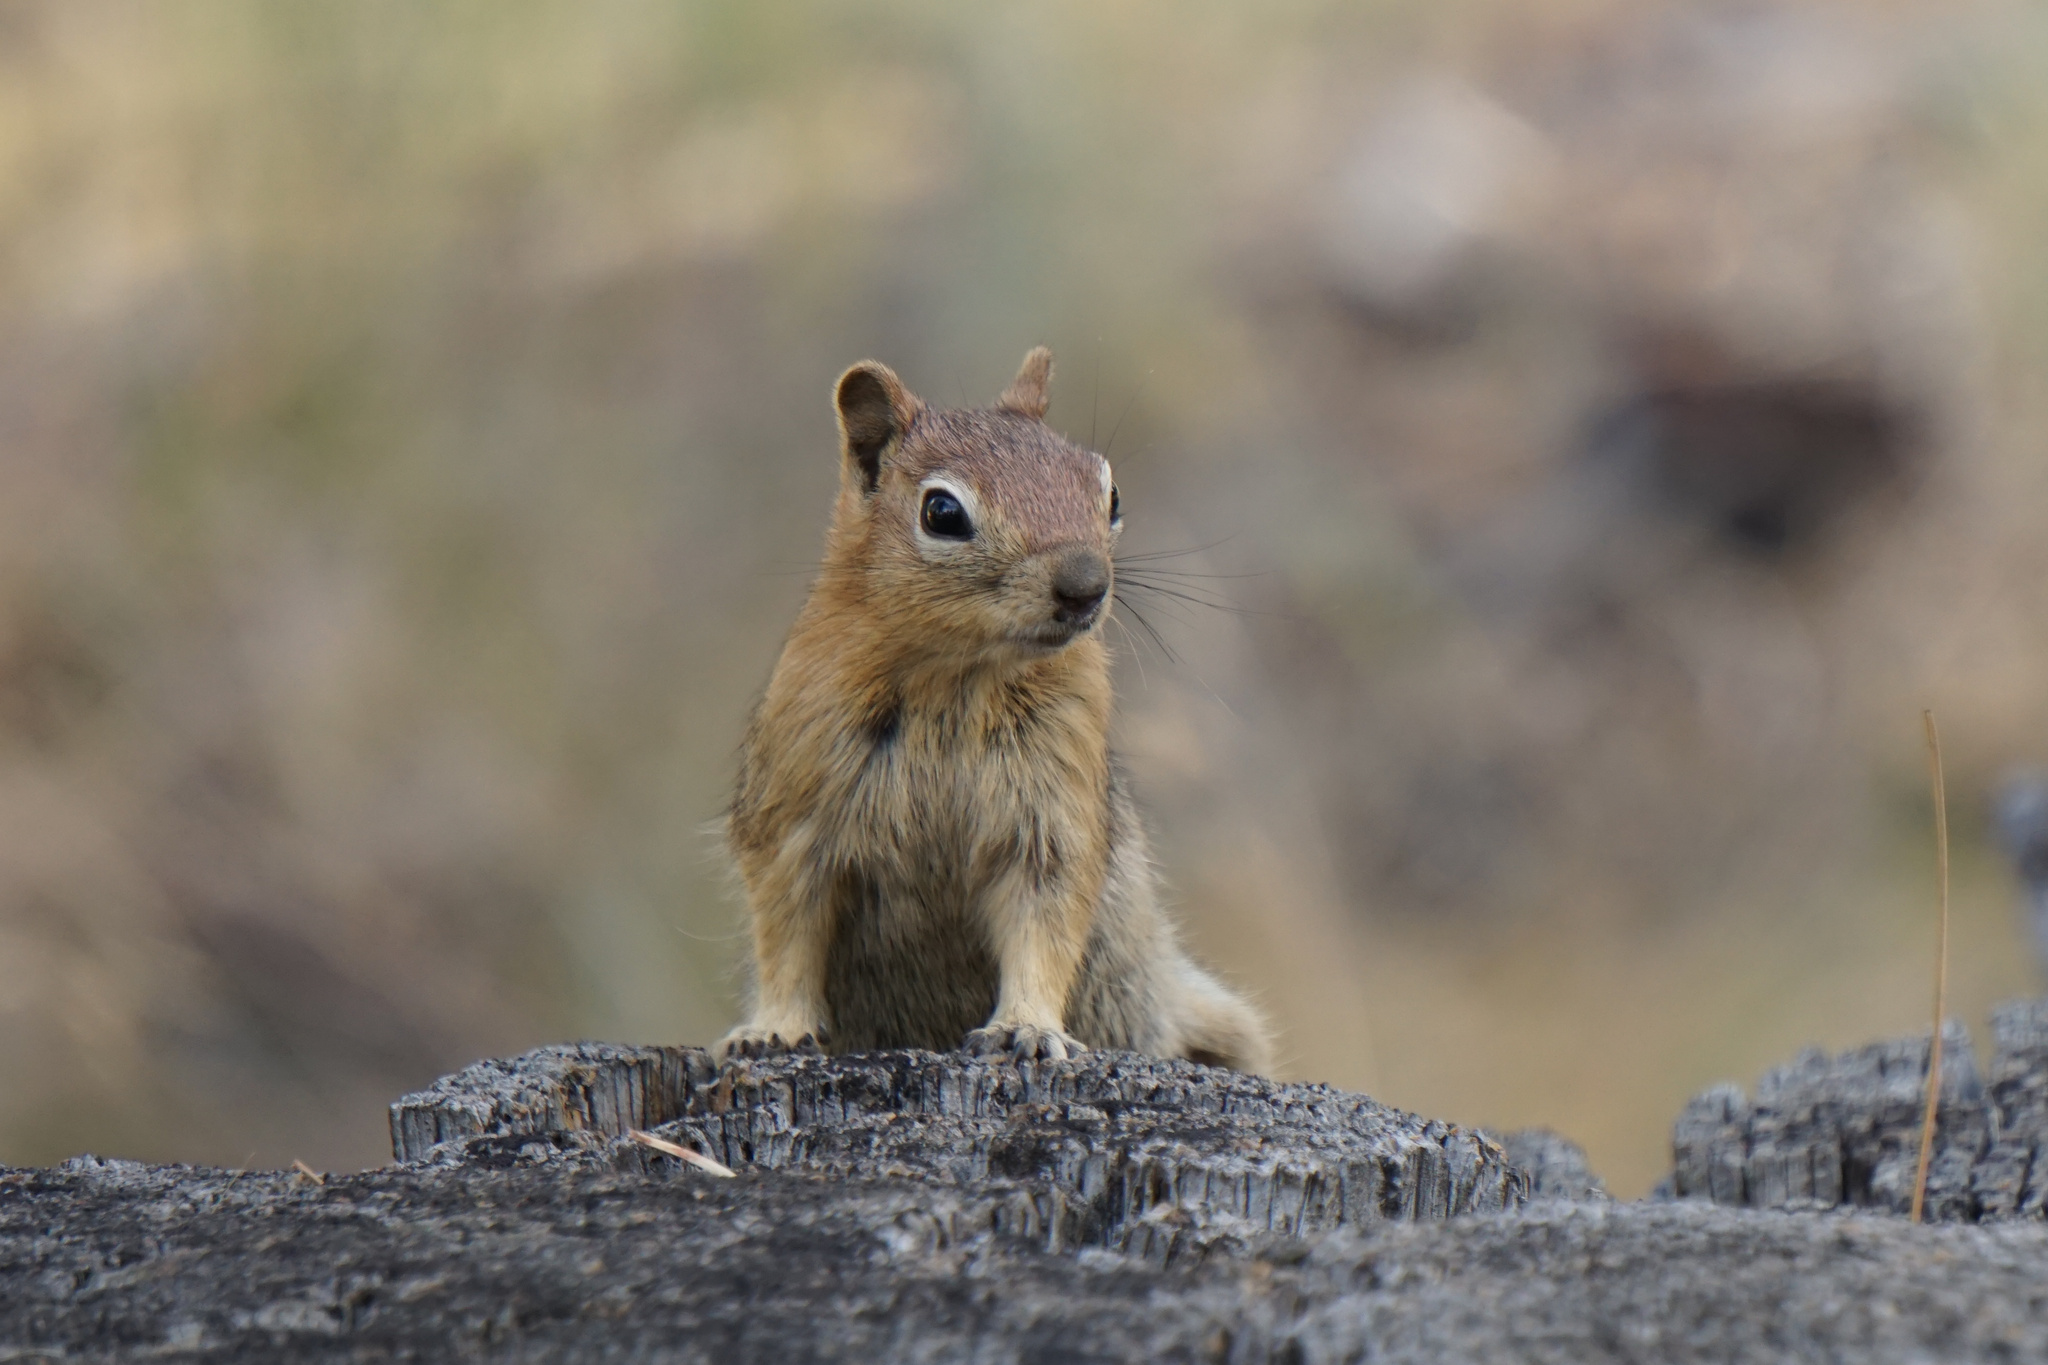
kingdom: Animalia
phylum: Chordata
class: Mammalia
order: Rodentia
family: Sciuridae
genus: Callospermophilus
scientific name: Callospermophilus lateralis
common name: Golden-mantled ground squirrel
